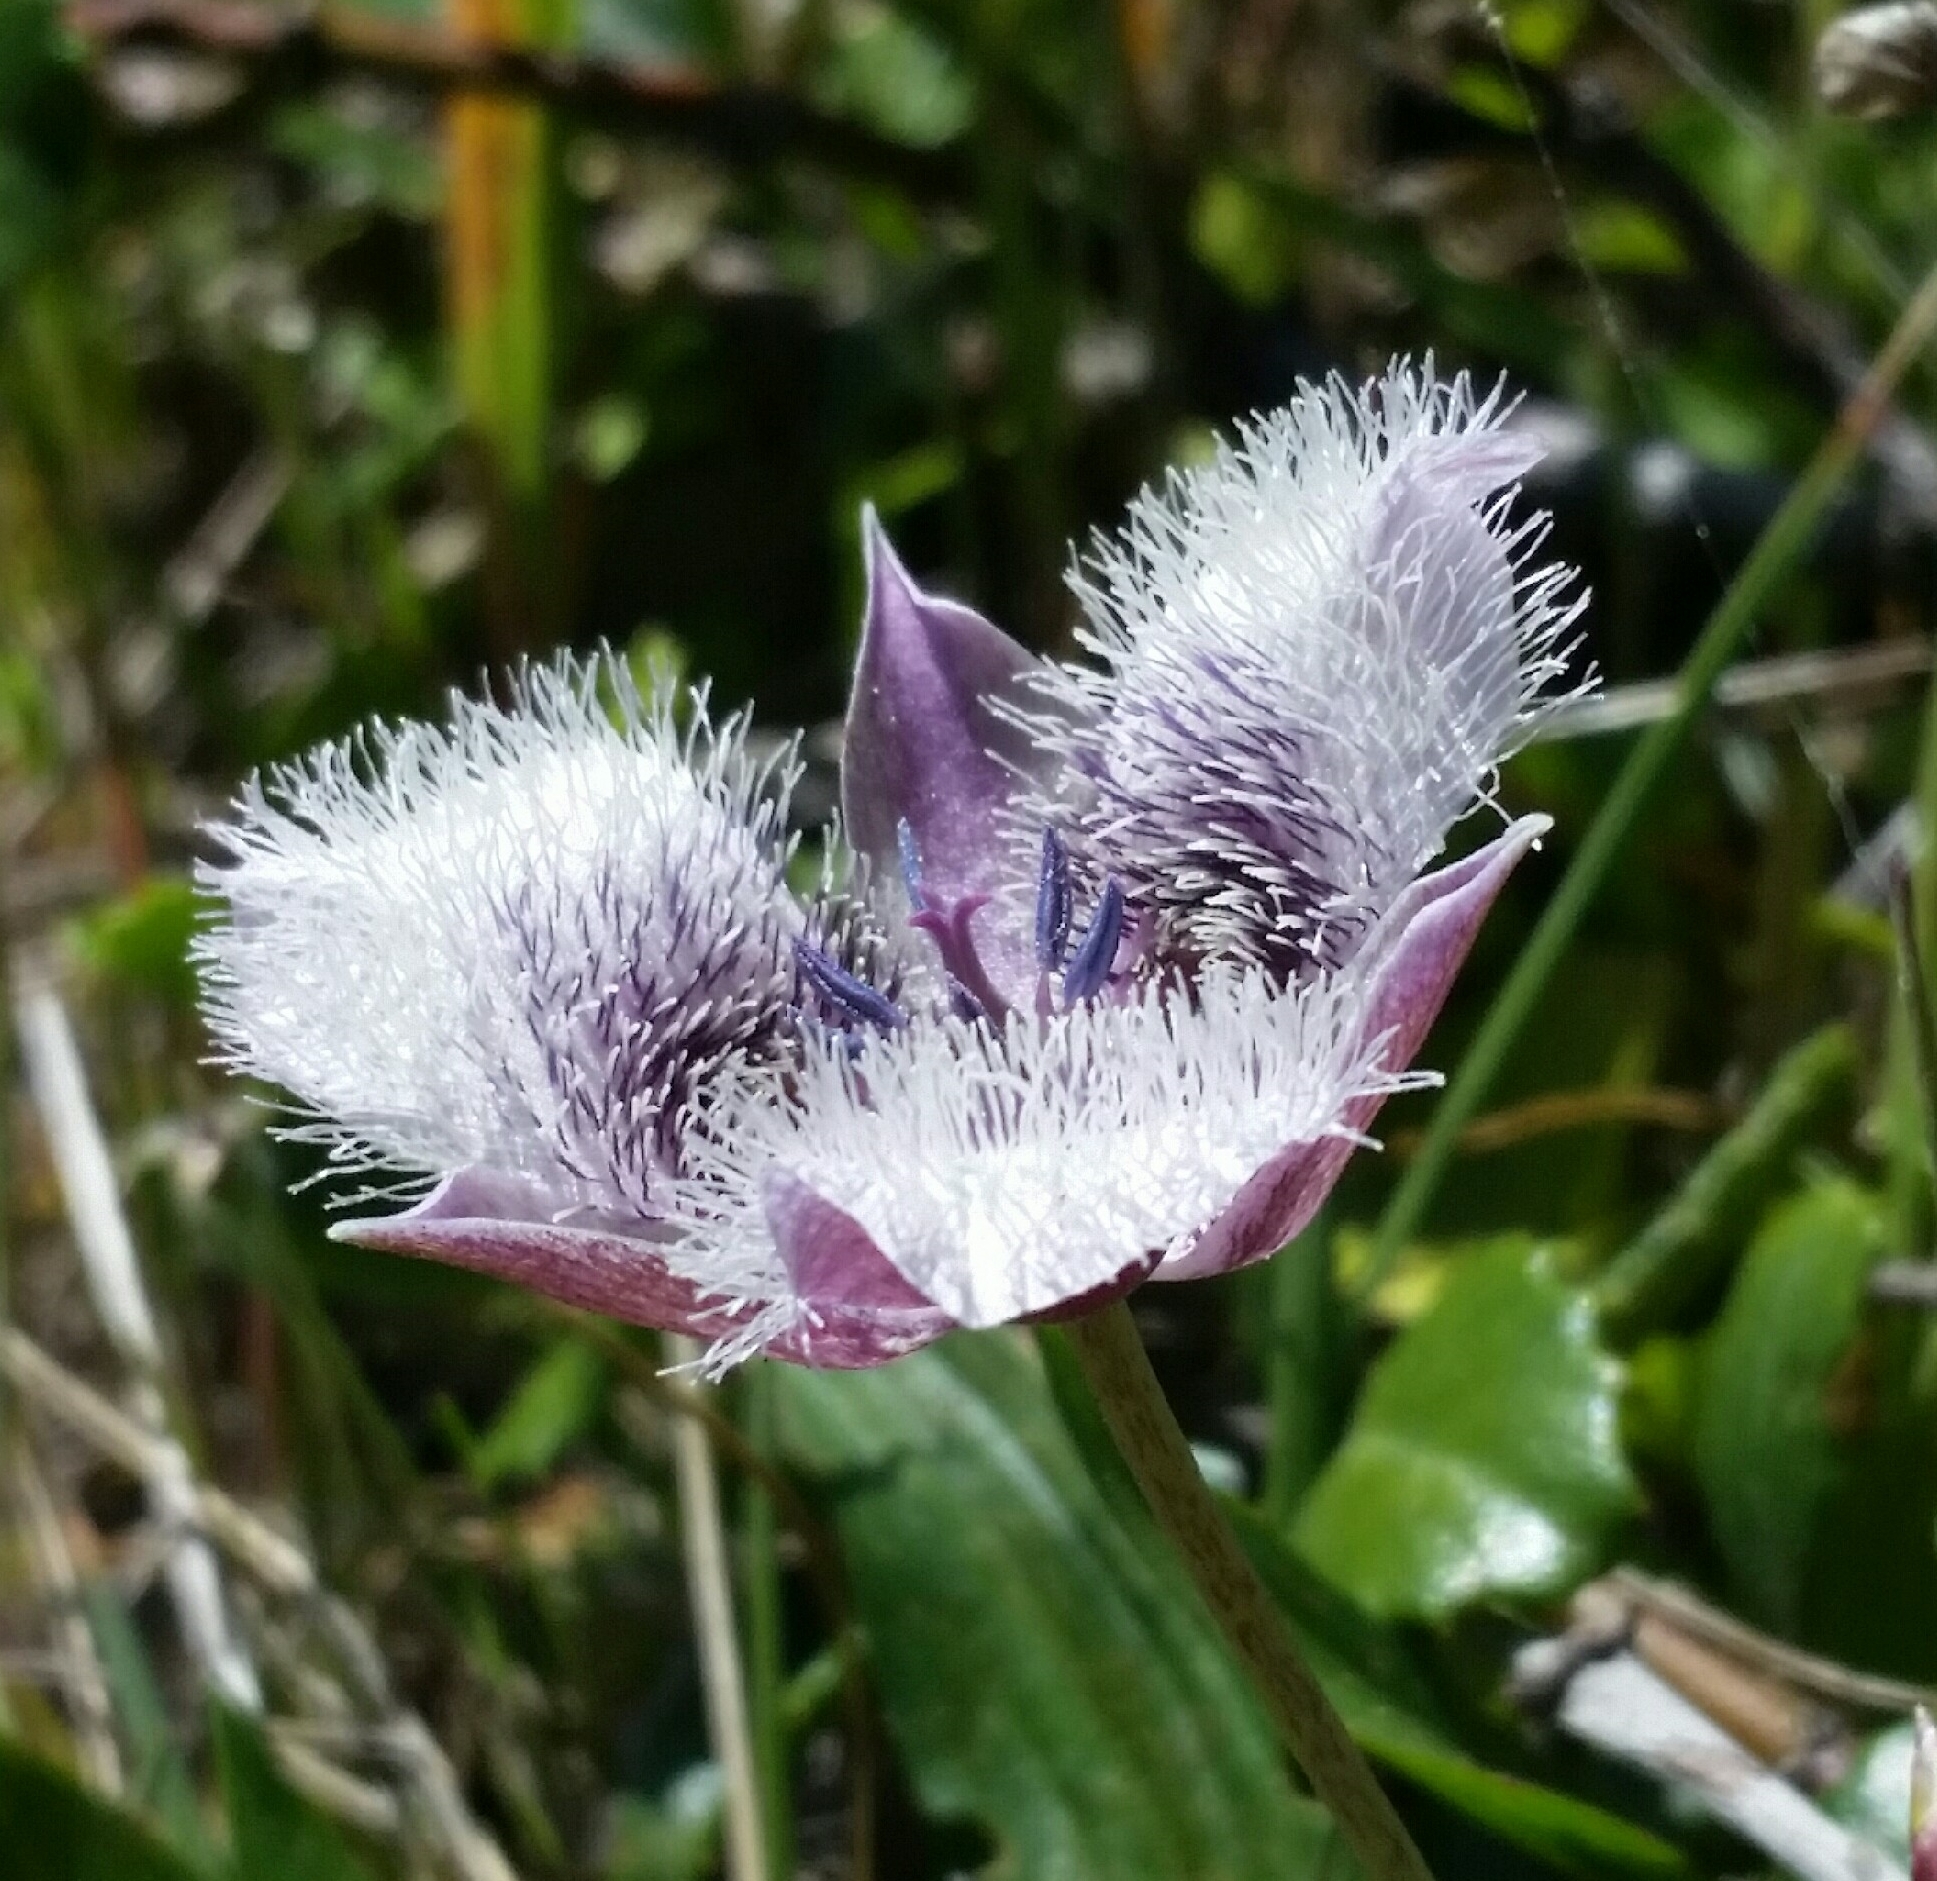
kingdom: Plantae
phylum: Tracheophyta
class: Liliopsida
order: Liliales
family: Liliaceae
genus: Calochortus
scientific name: Calochortus tolmiei
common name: Pussy-ears
